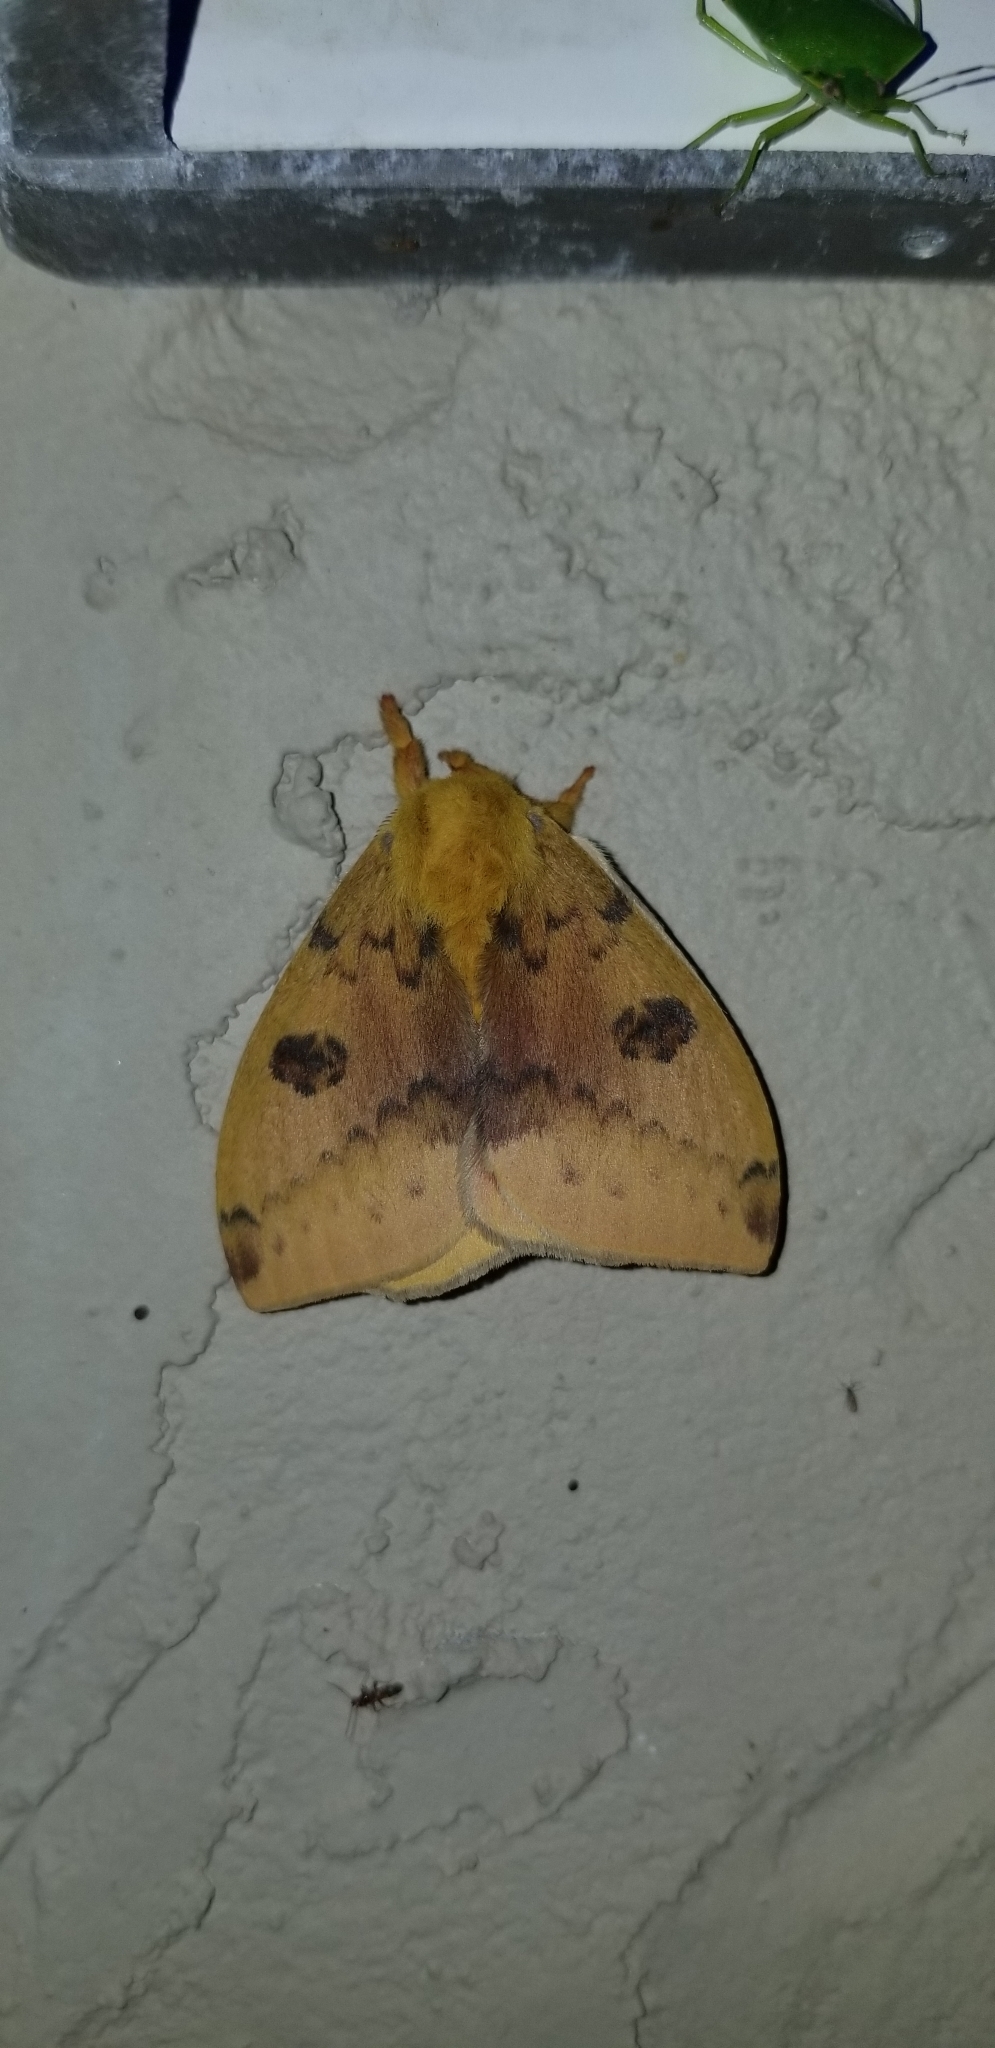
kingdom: Animalia
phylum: Arthropoda
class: Insecta
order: Lepidoptera
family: Saturniidae
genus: Automeris
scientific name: Automeris io
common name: Io moth
